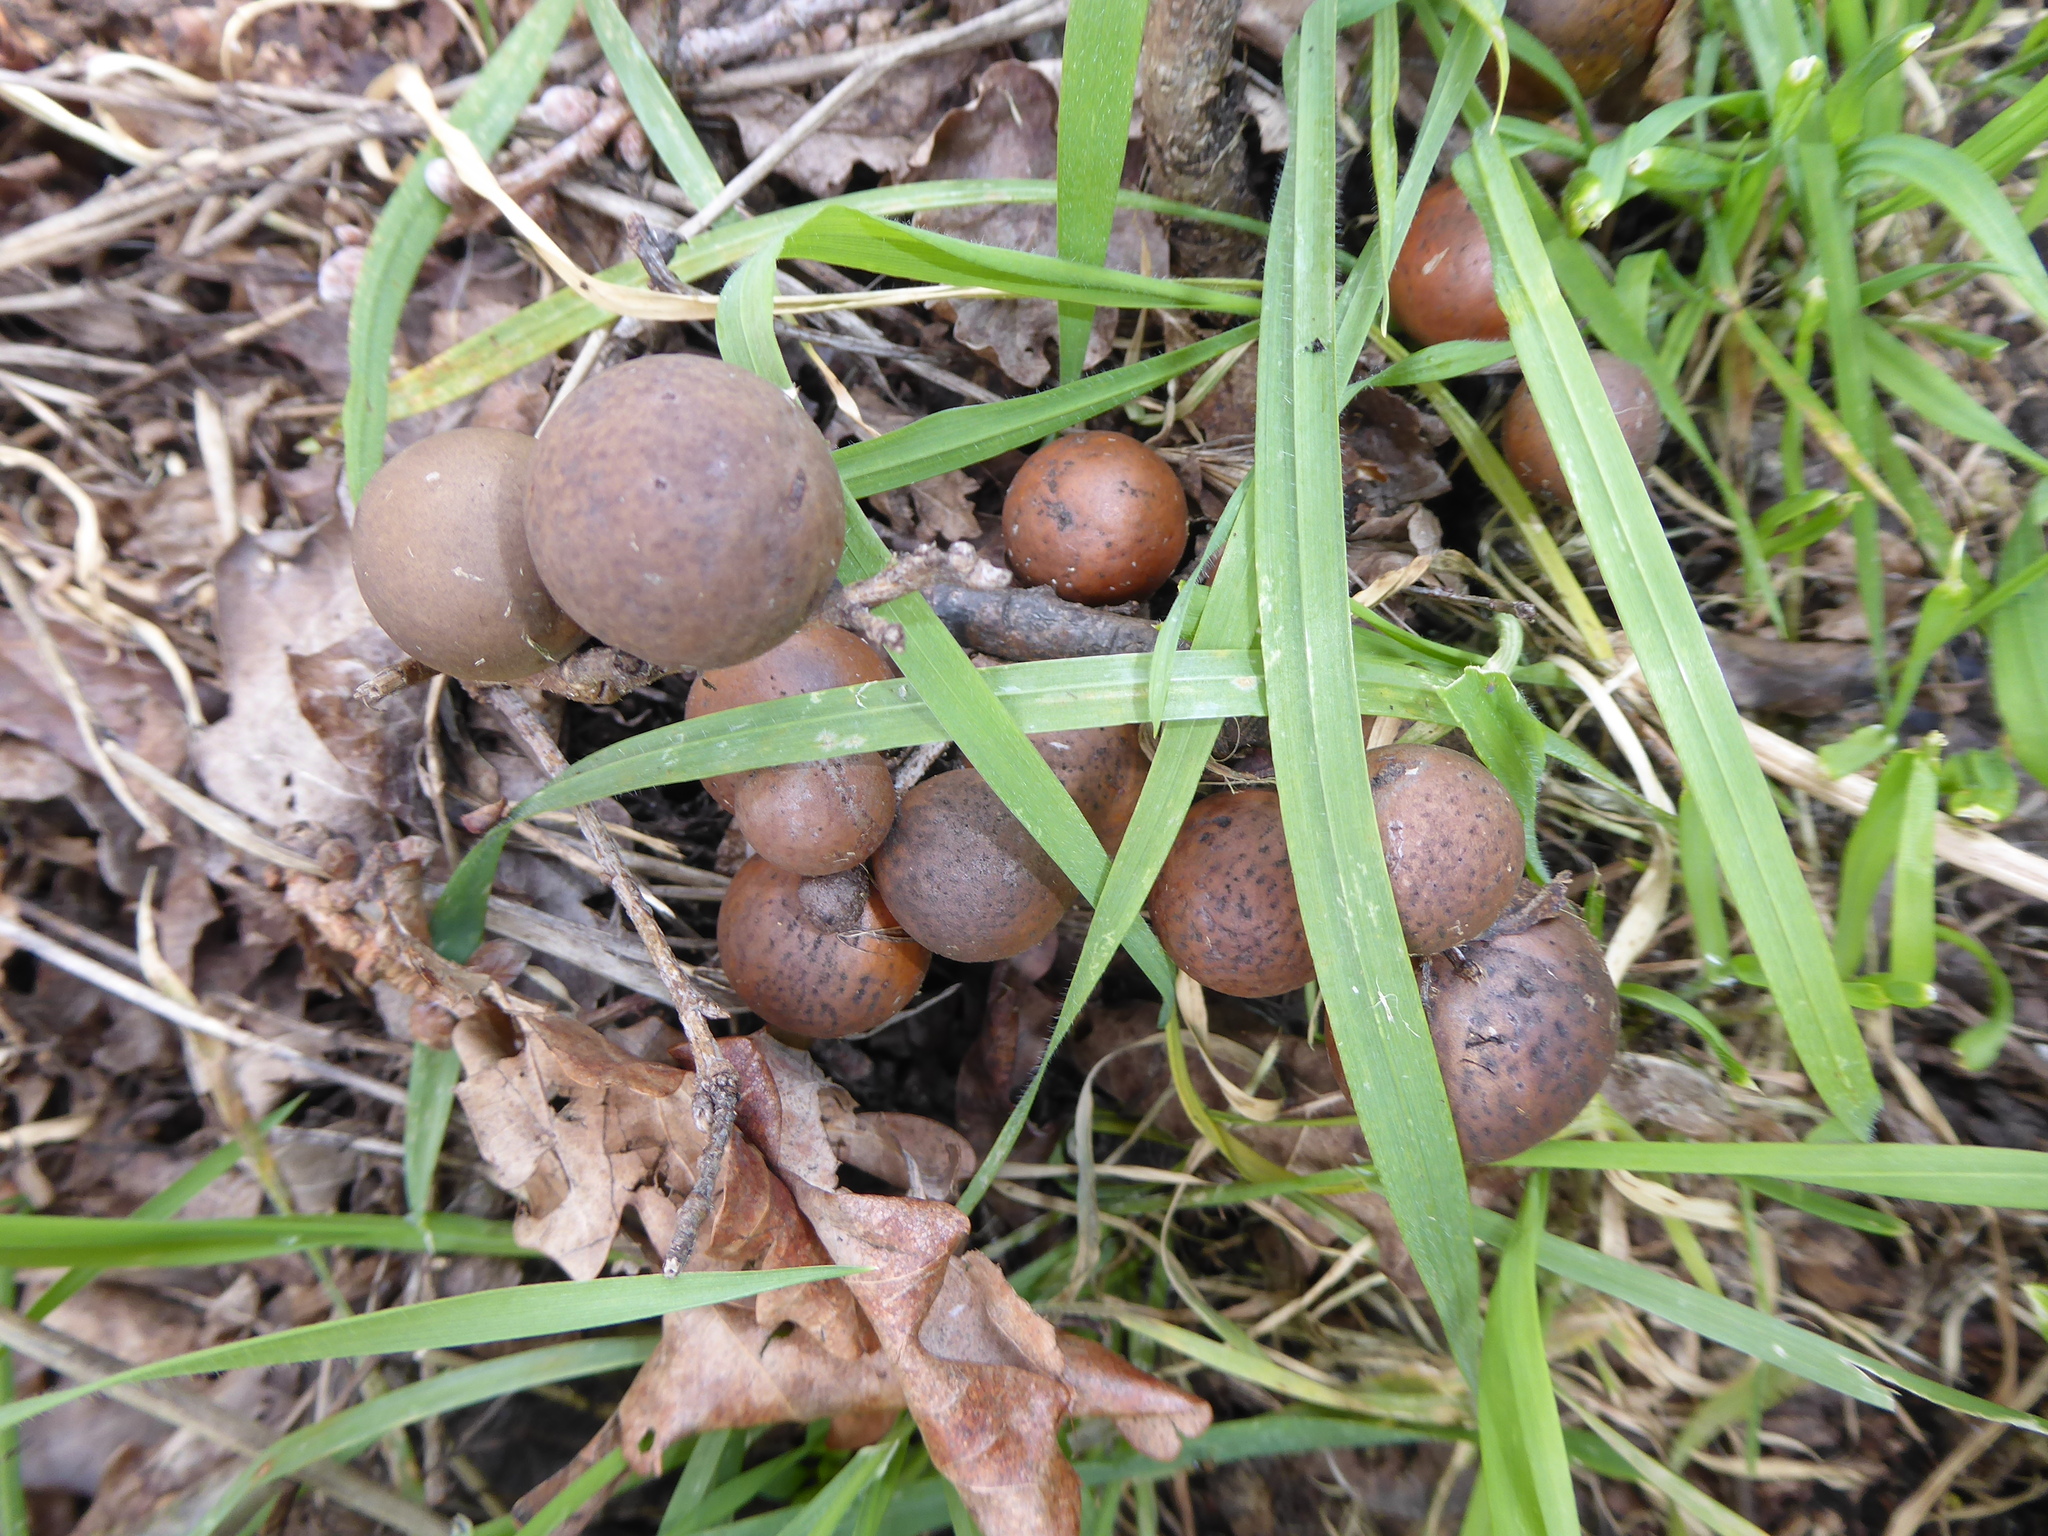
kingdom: Animalia
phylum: Arthropoda
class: Insecta
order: Hymenoptera
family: Cynipidae
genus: Andricus
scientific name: Andricus kollari
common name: Marble gall
